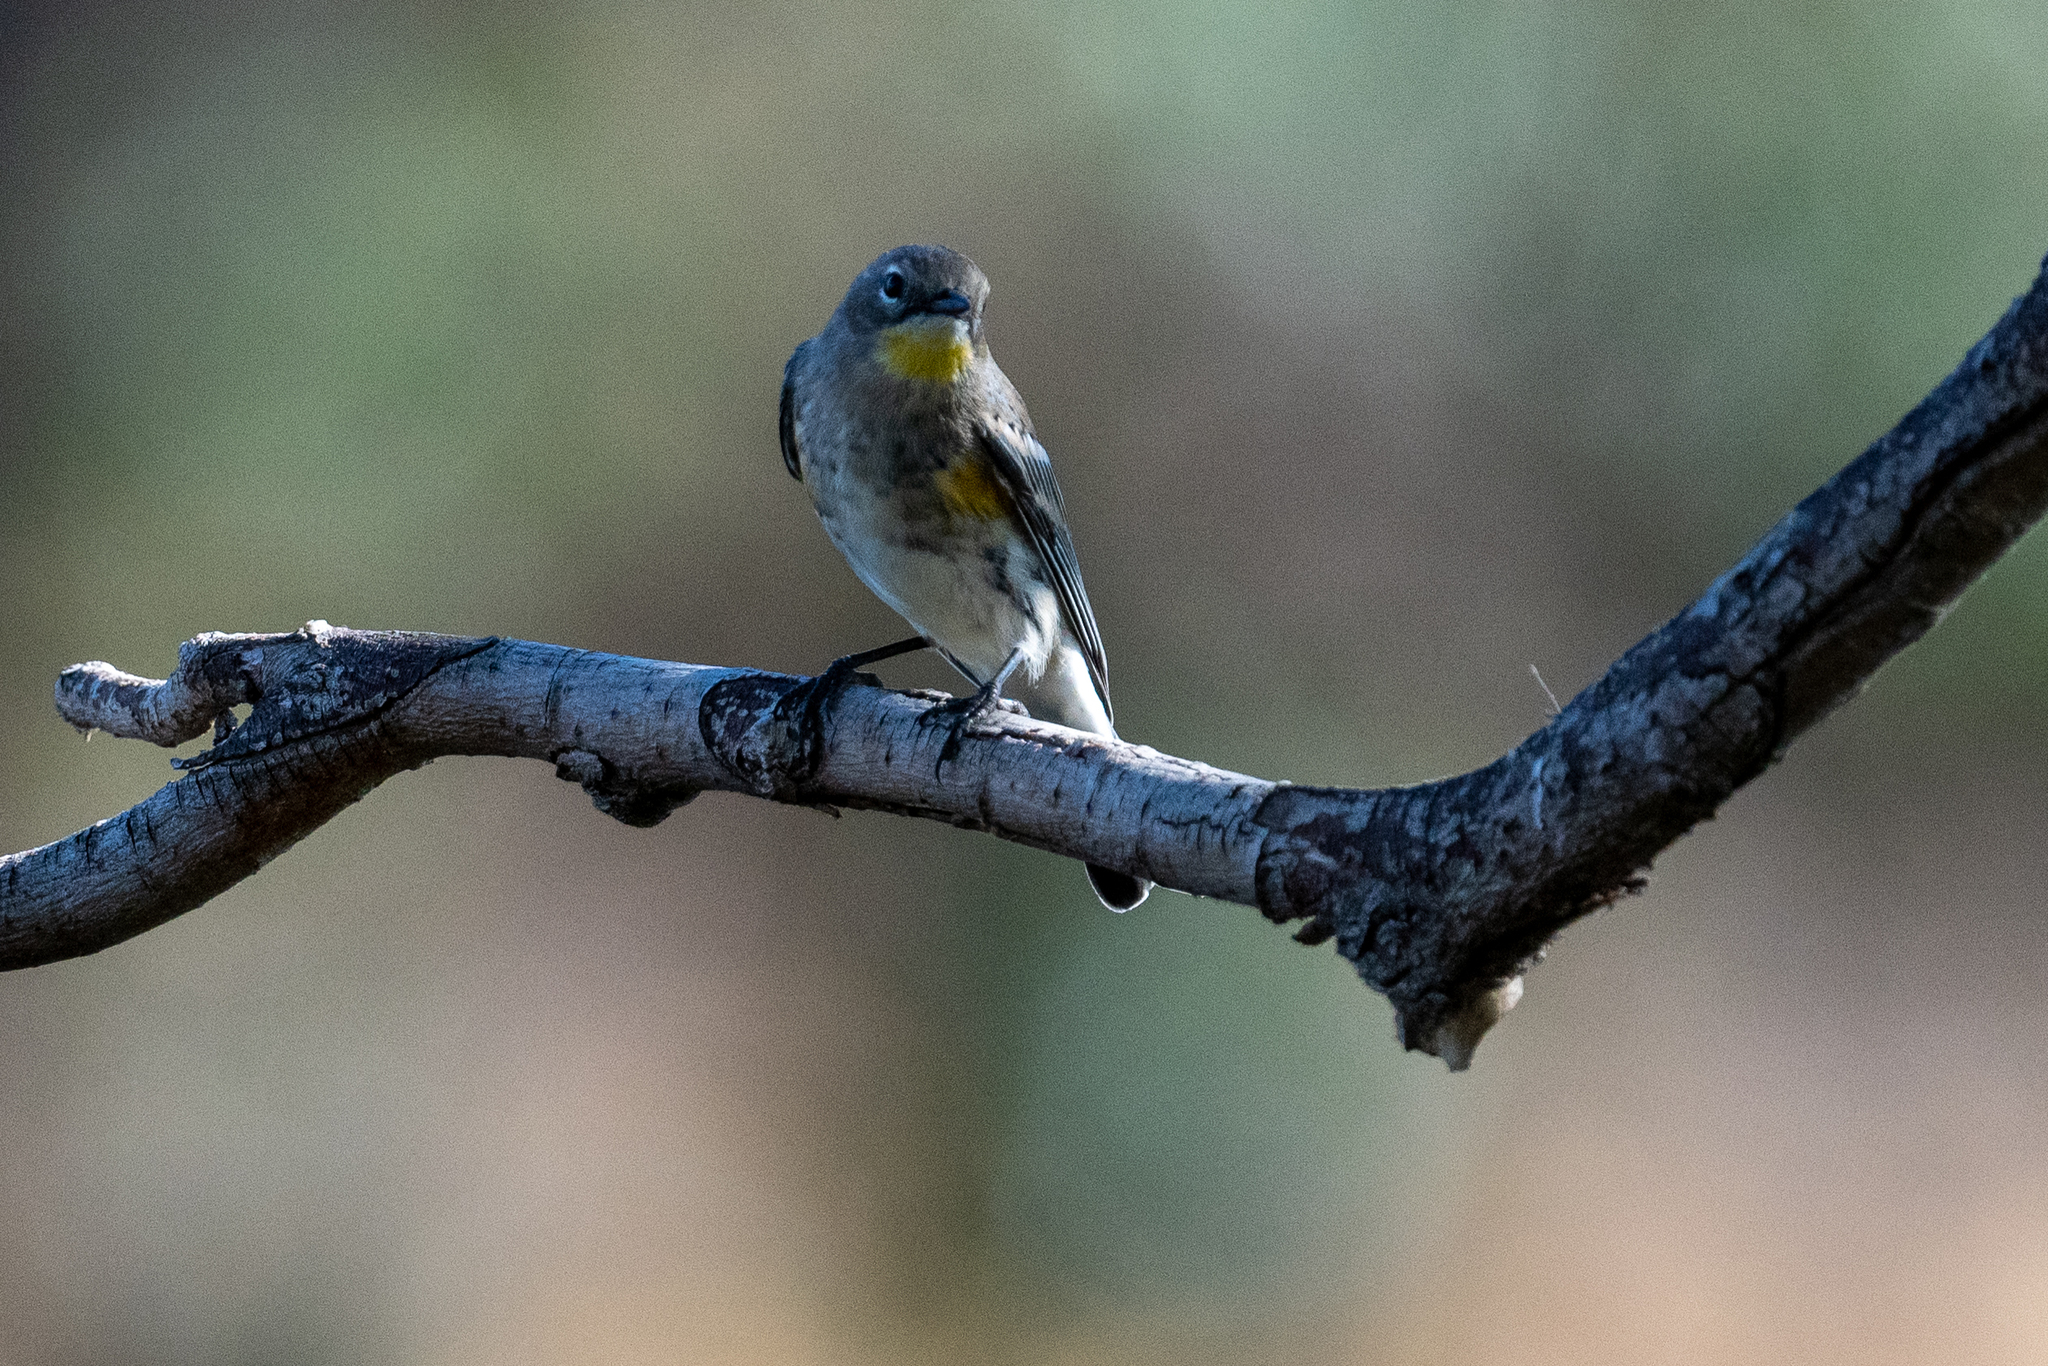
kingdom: Animalia
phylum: Chordata
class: Aves
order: Passeriformes
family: Parulidae
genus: Setophaga
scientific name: Setophaga coronata
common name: Myrtle warbler
